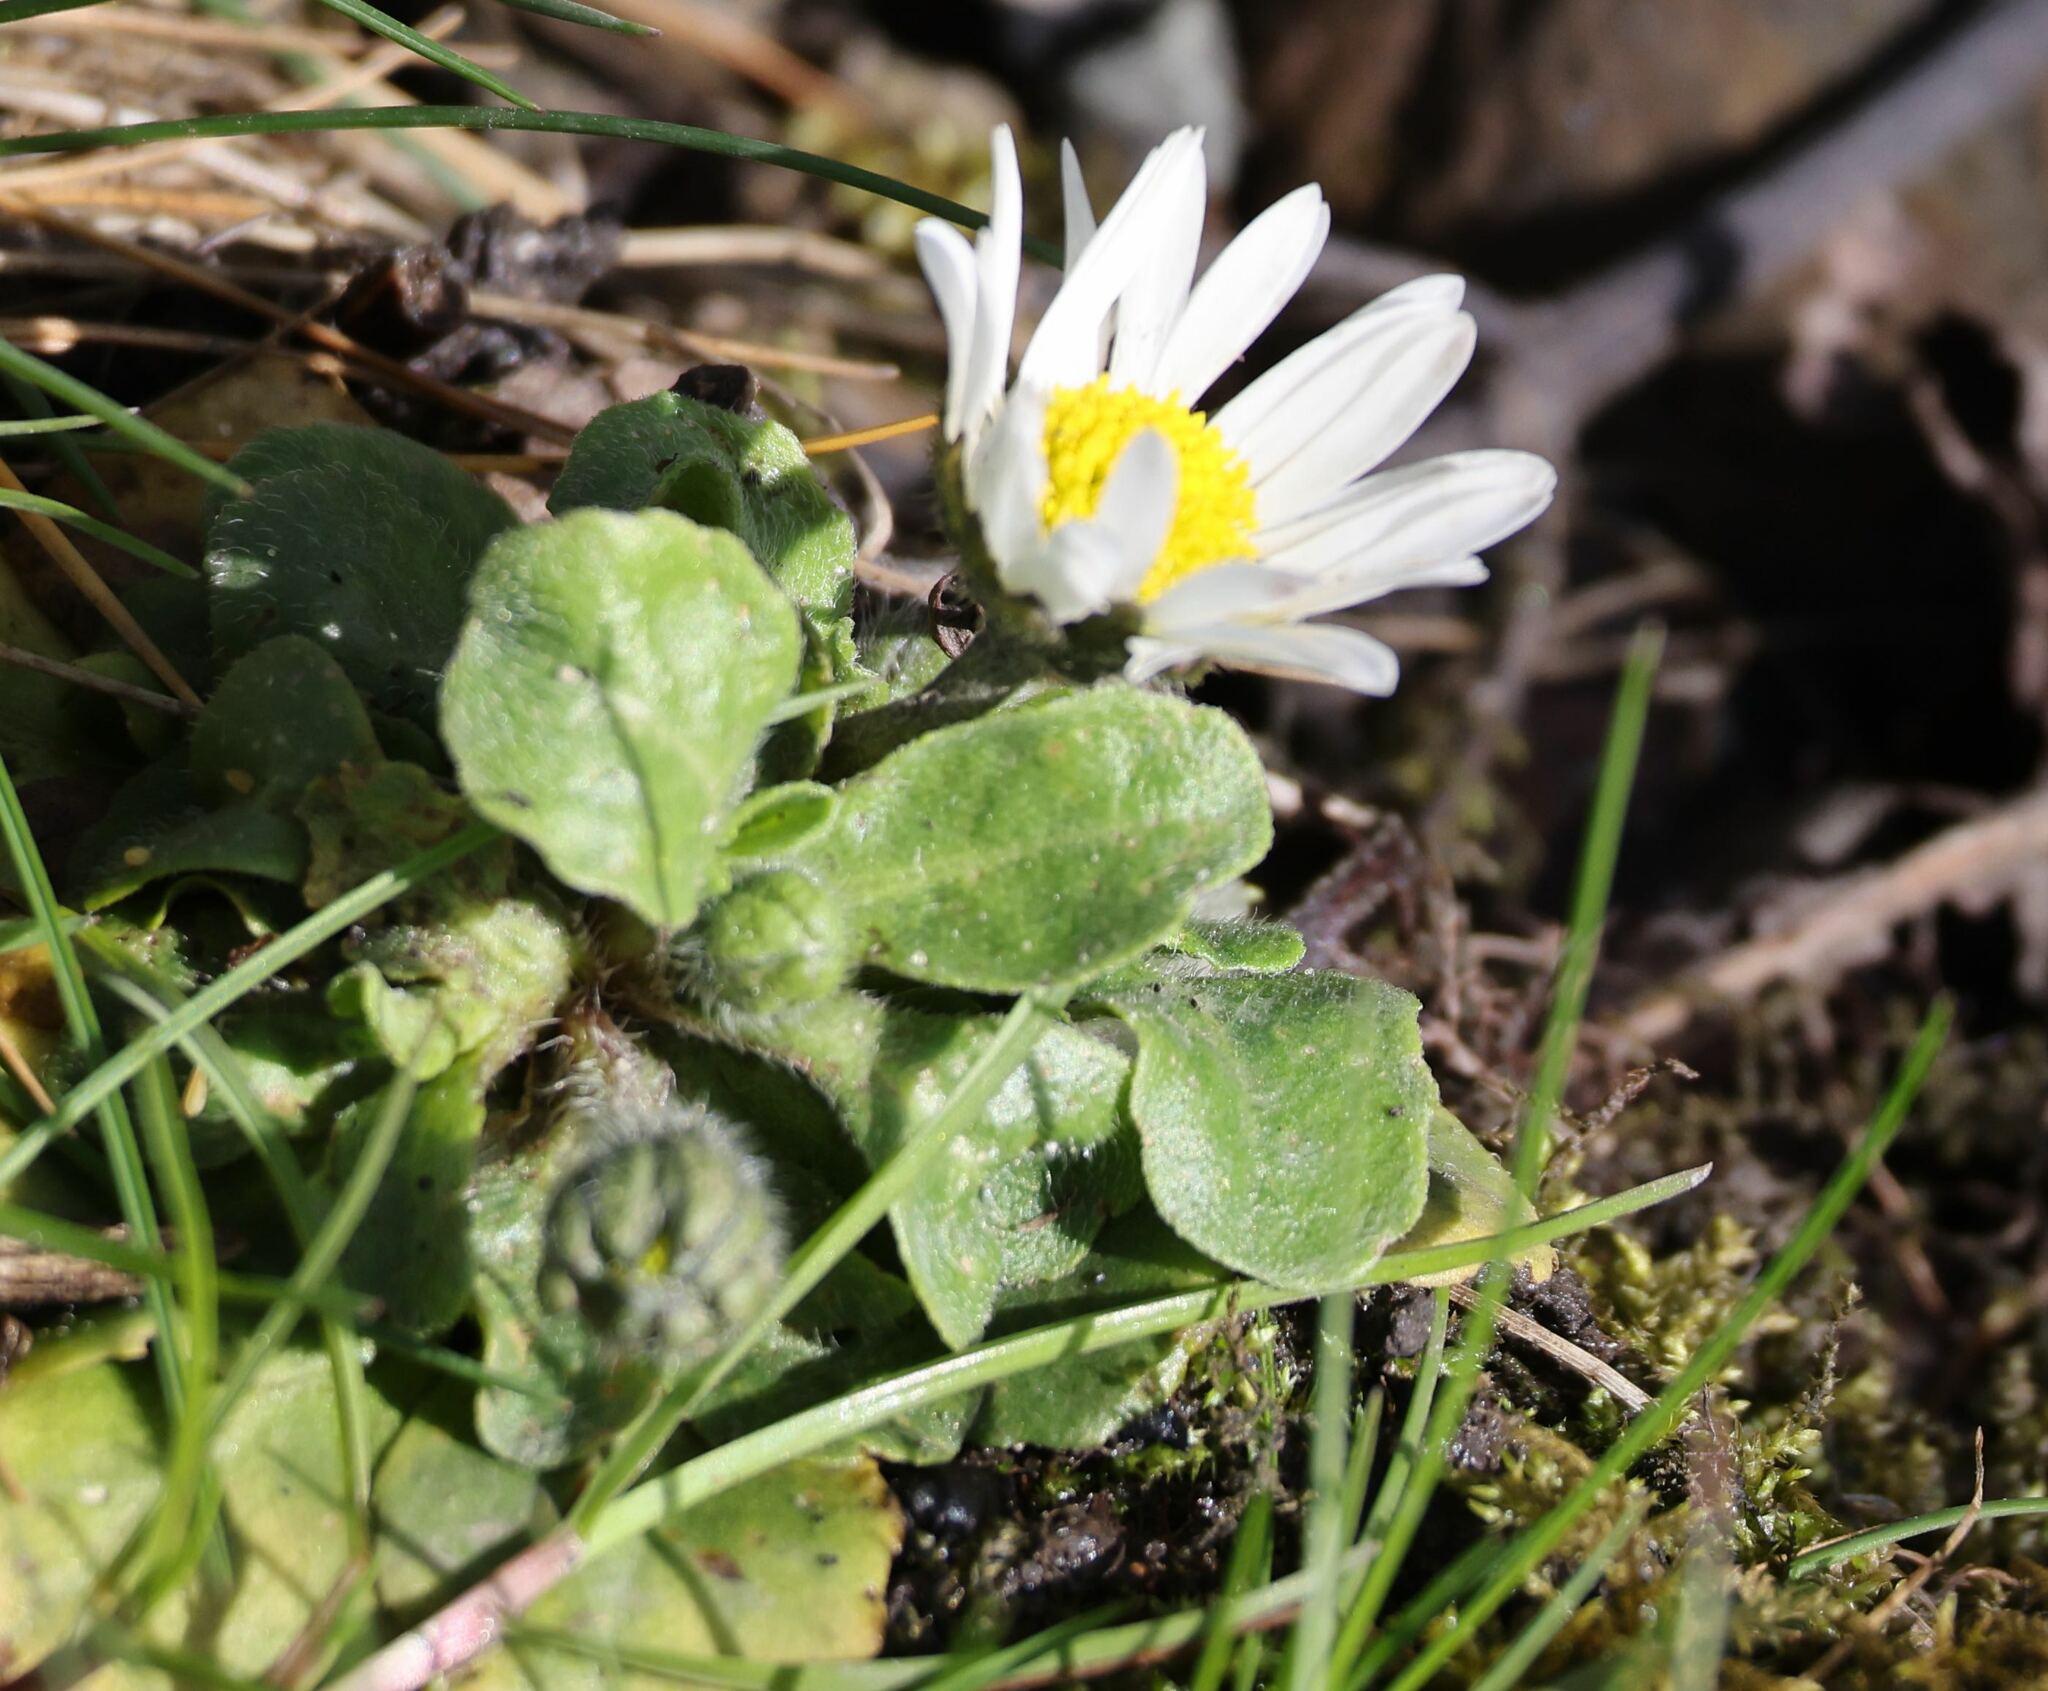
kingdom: Plantae
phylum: Tracheophyta
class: Magnoliopsida
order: Asterales
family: Asteraceae
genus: Bellis
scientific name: Bellis perennis
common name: Lawndaisy
